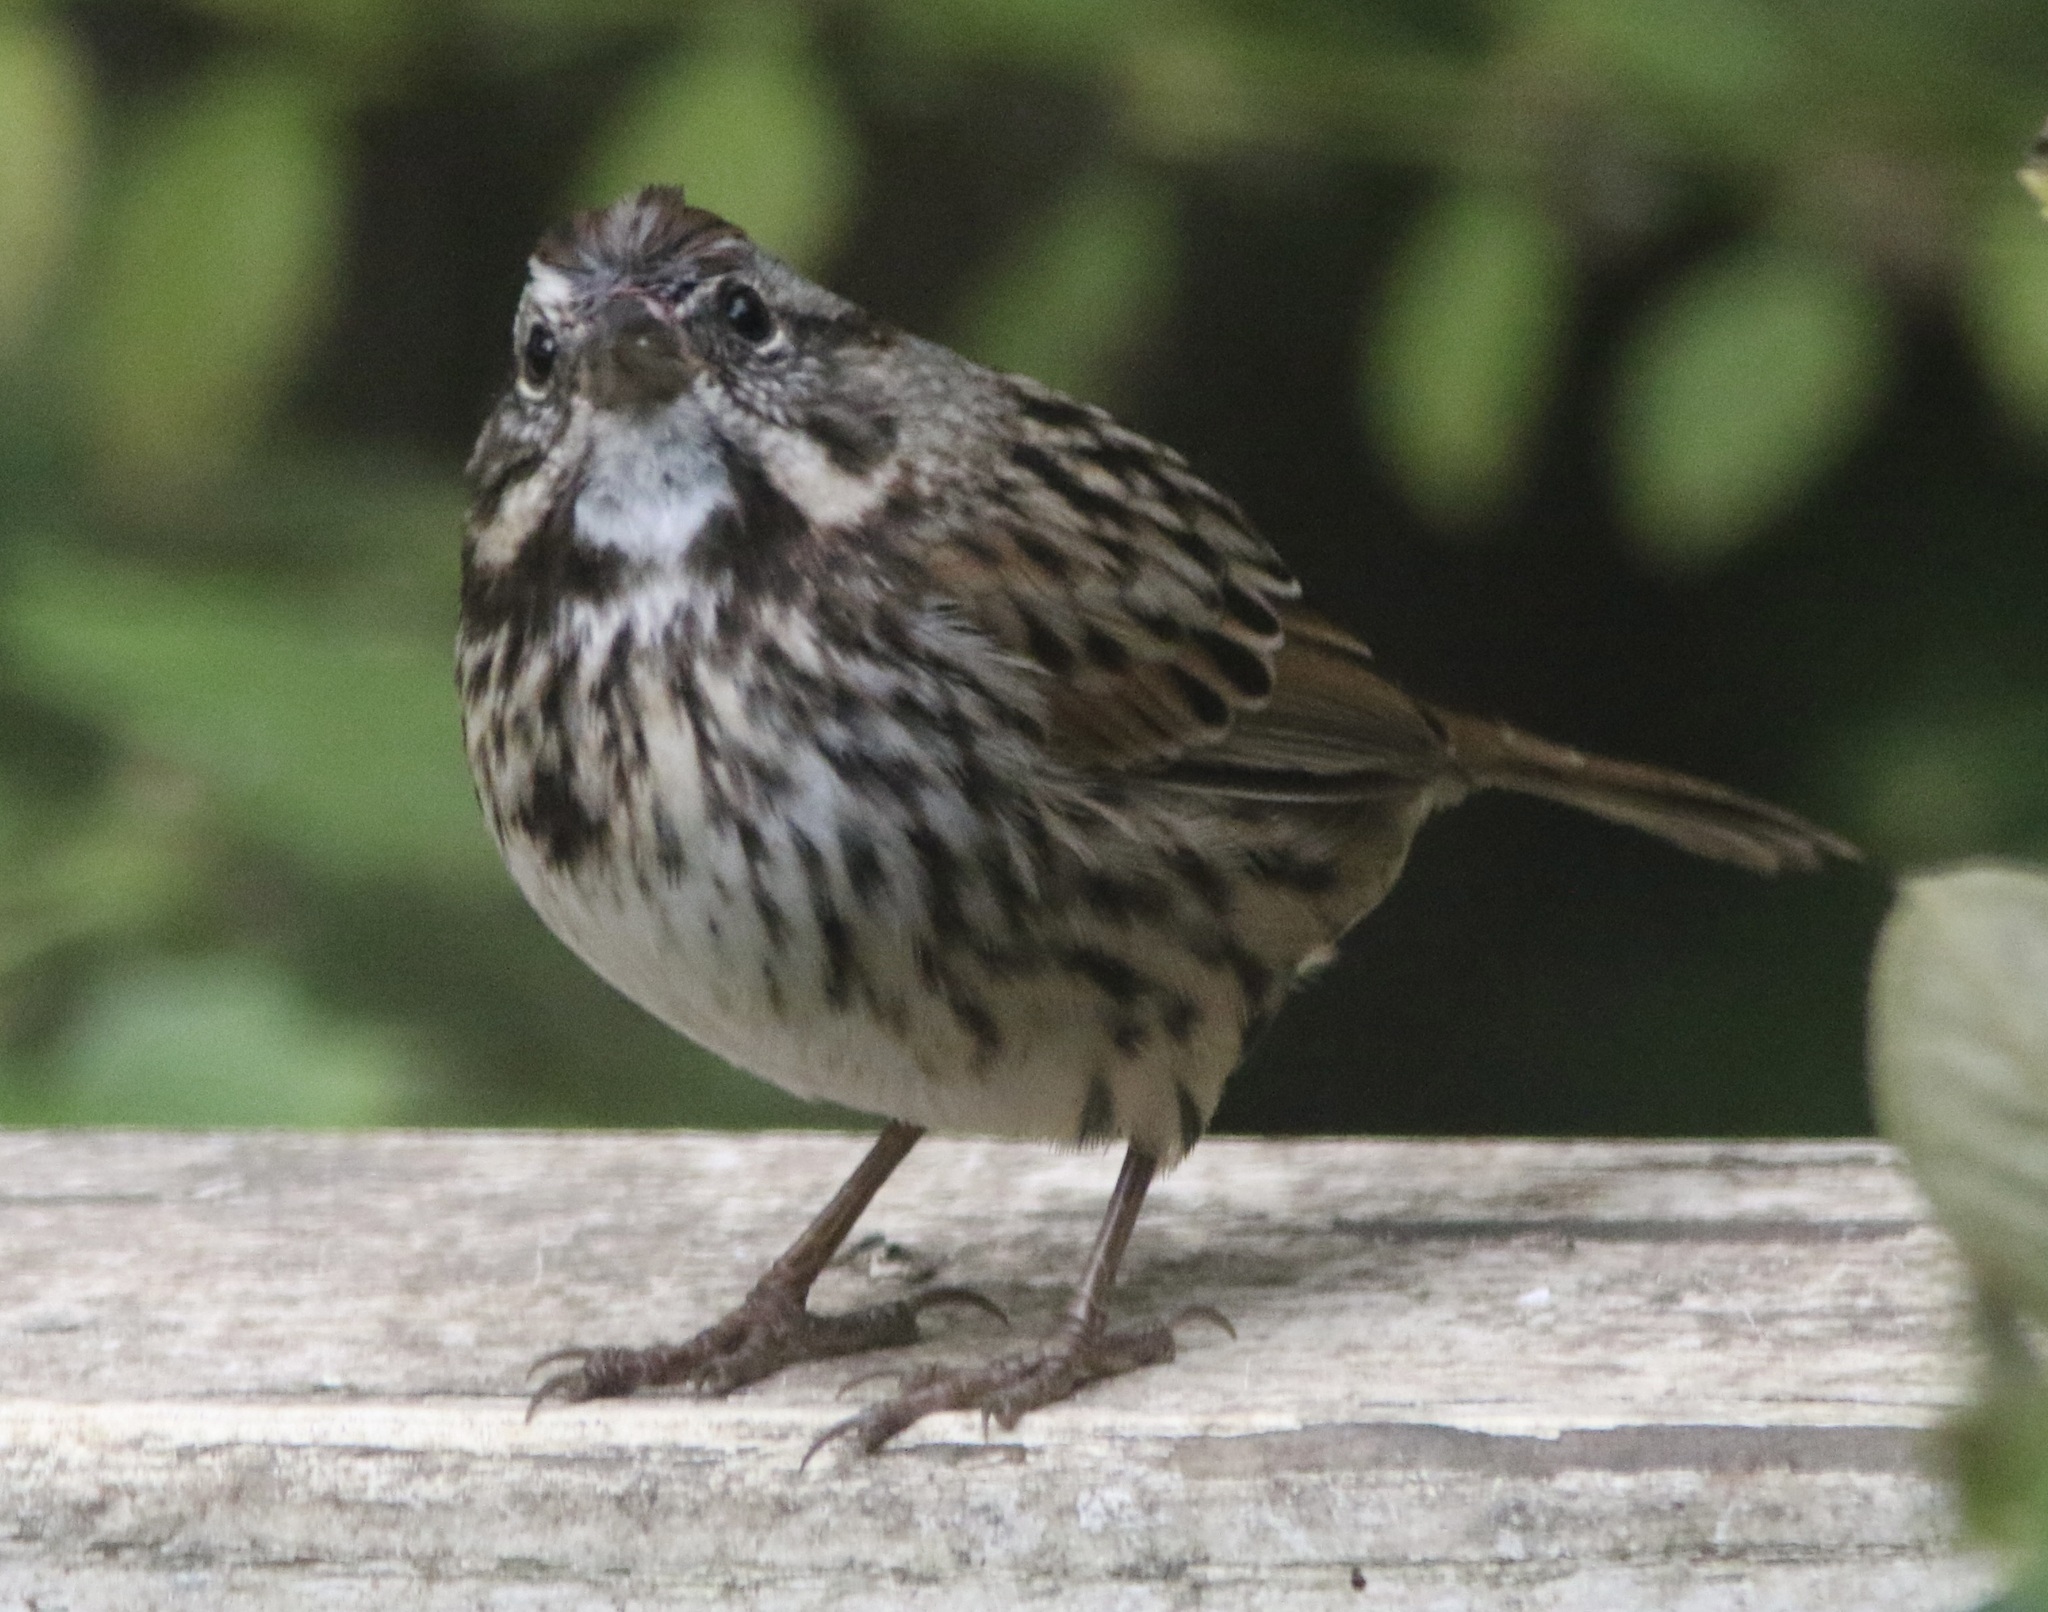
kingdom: Animalia
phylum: Chordata
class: Aves
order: Passeriformes
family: Passerellidae
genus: Melospiza
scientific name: Melospiza melodia
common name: Song sparrow
